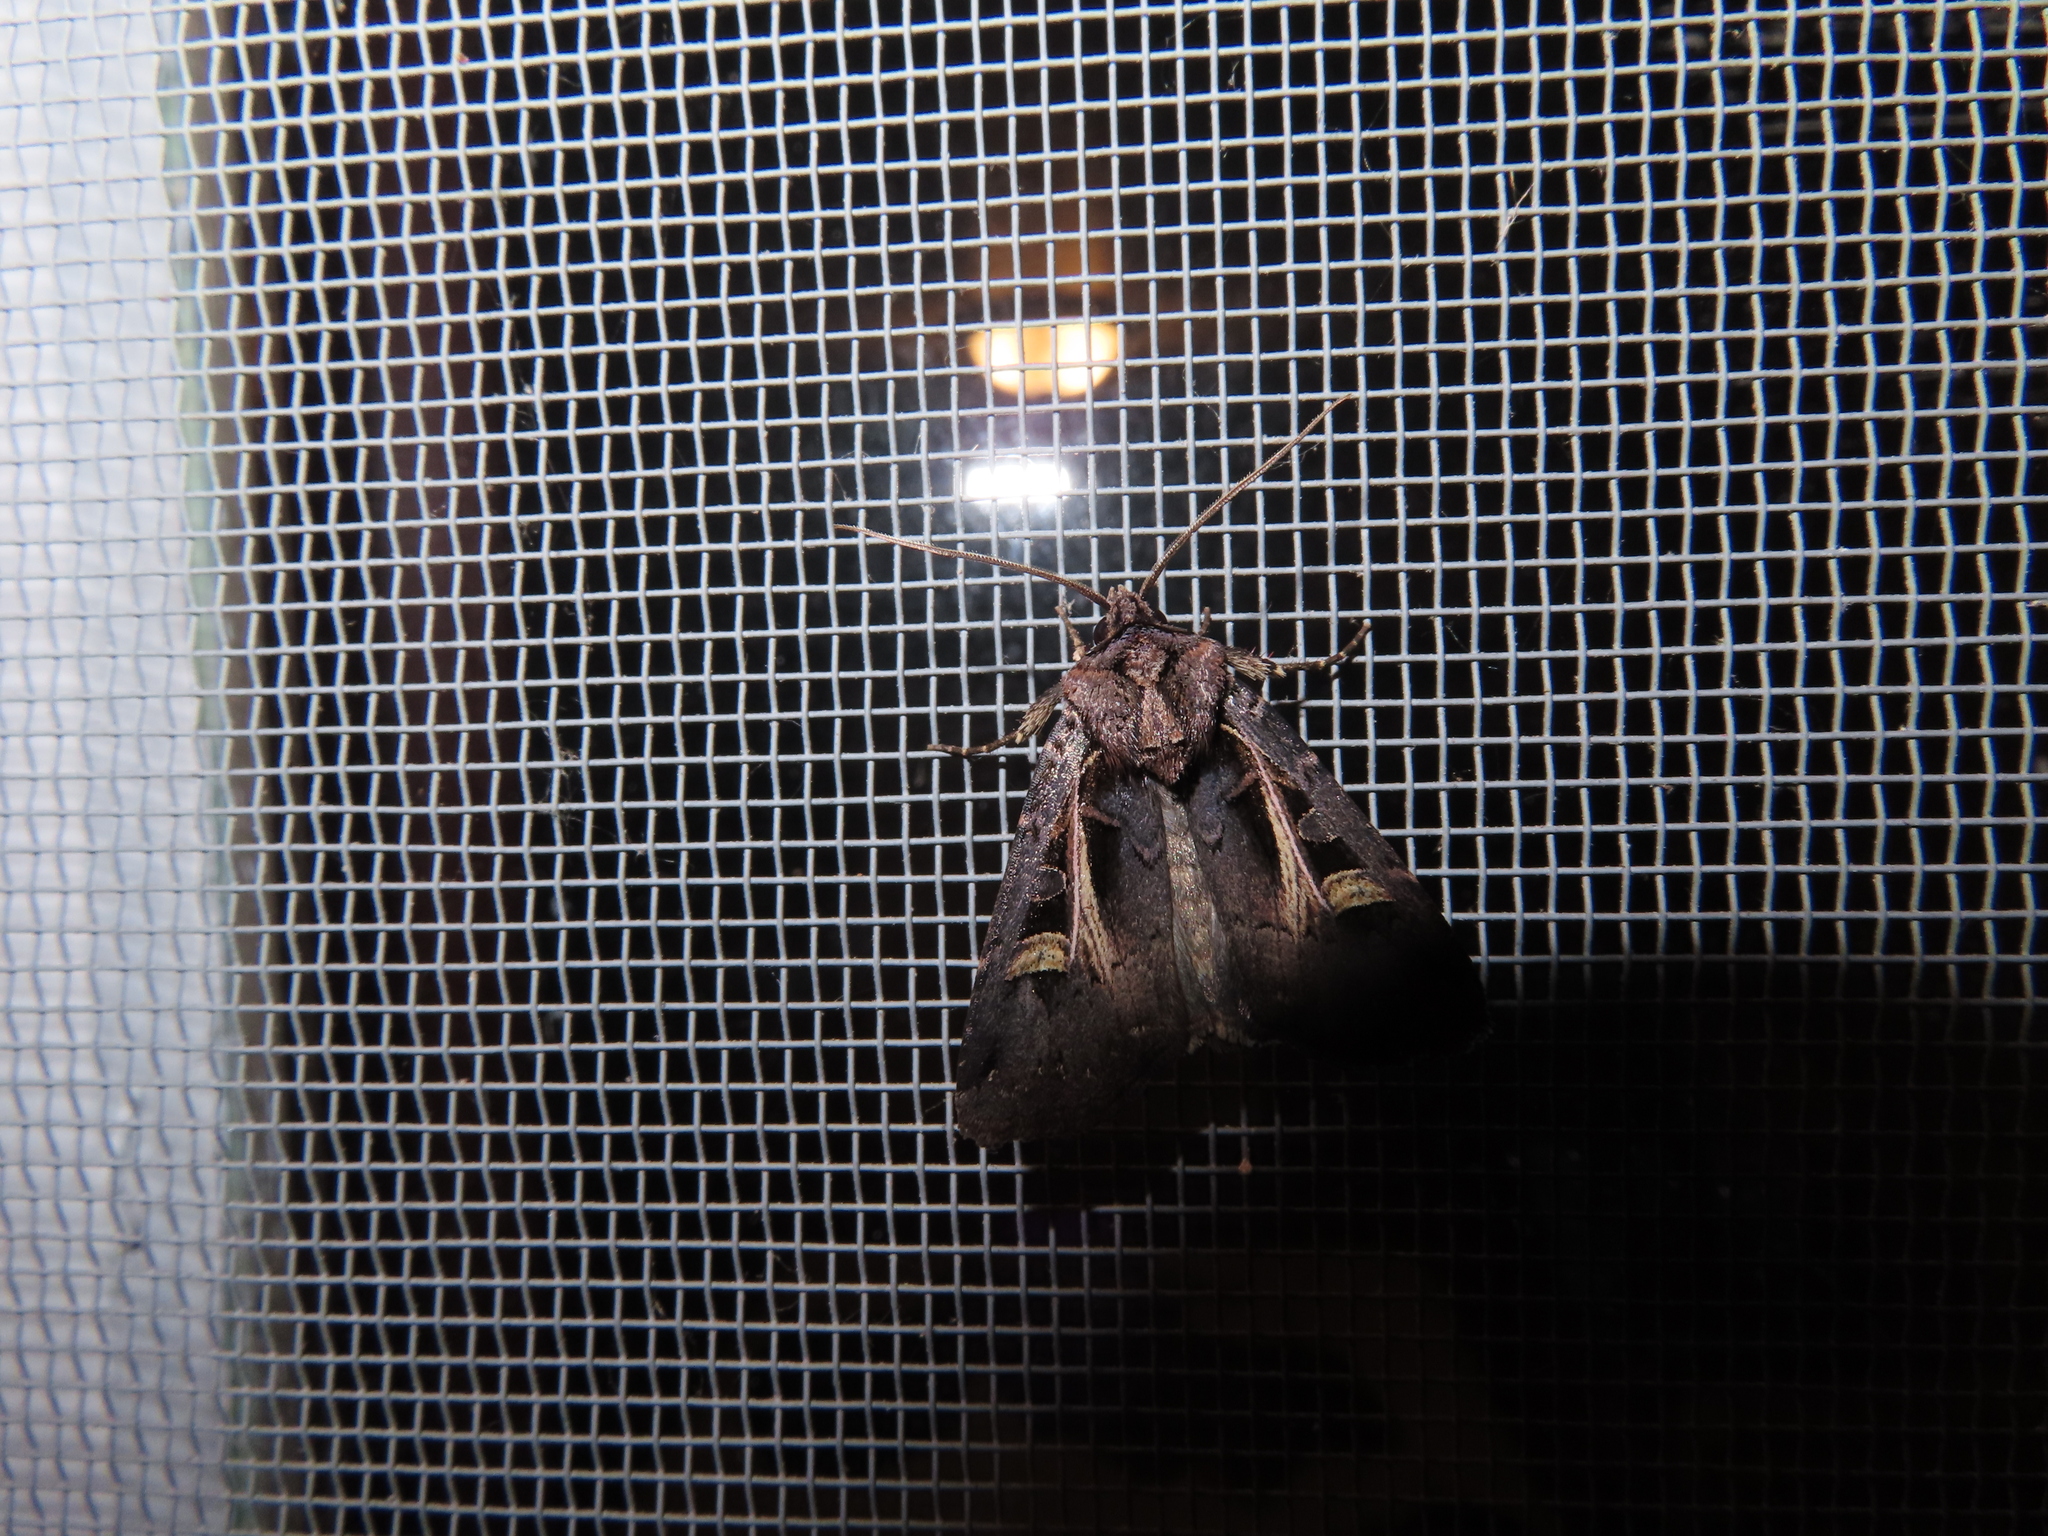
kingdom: Animalia
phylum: Arthropoda
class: Insecta
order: Lepidoptera
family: Noctuidae
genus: Feltia
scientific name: Feltia herilis
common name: Master's dart
